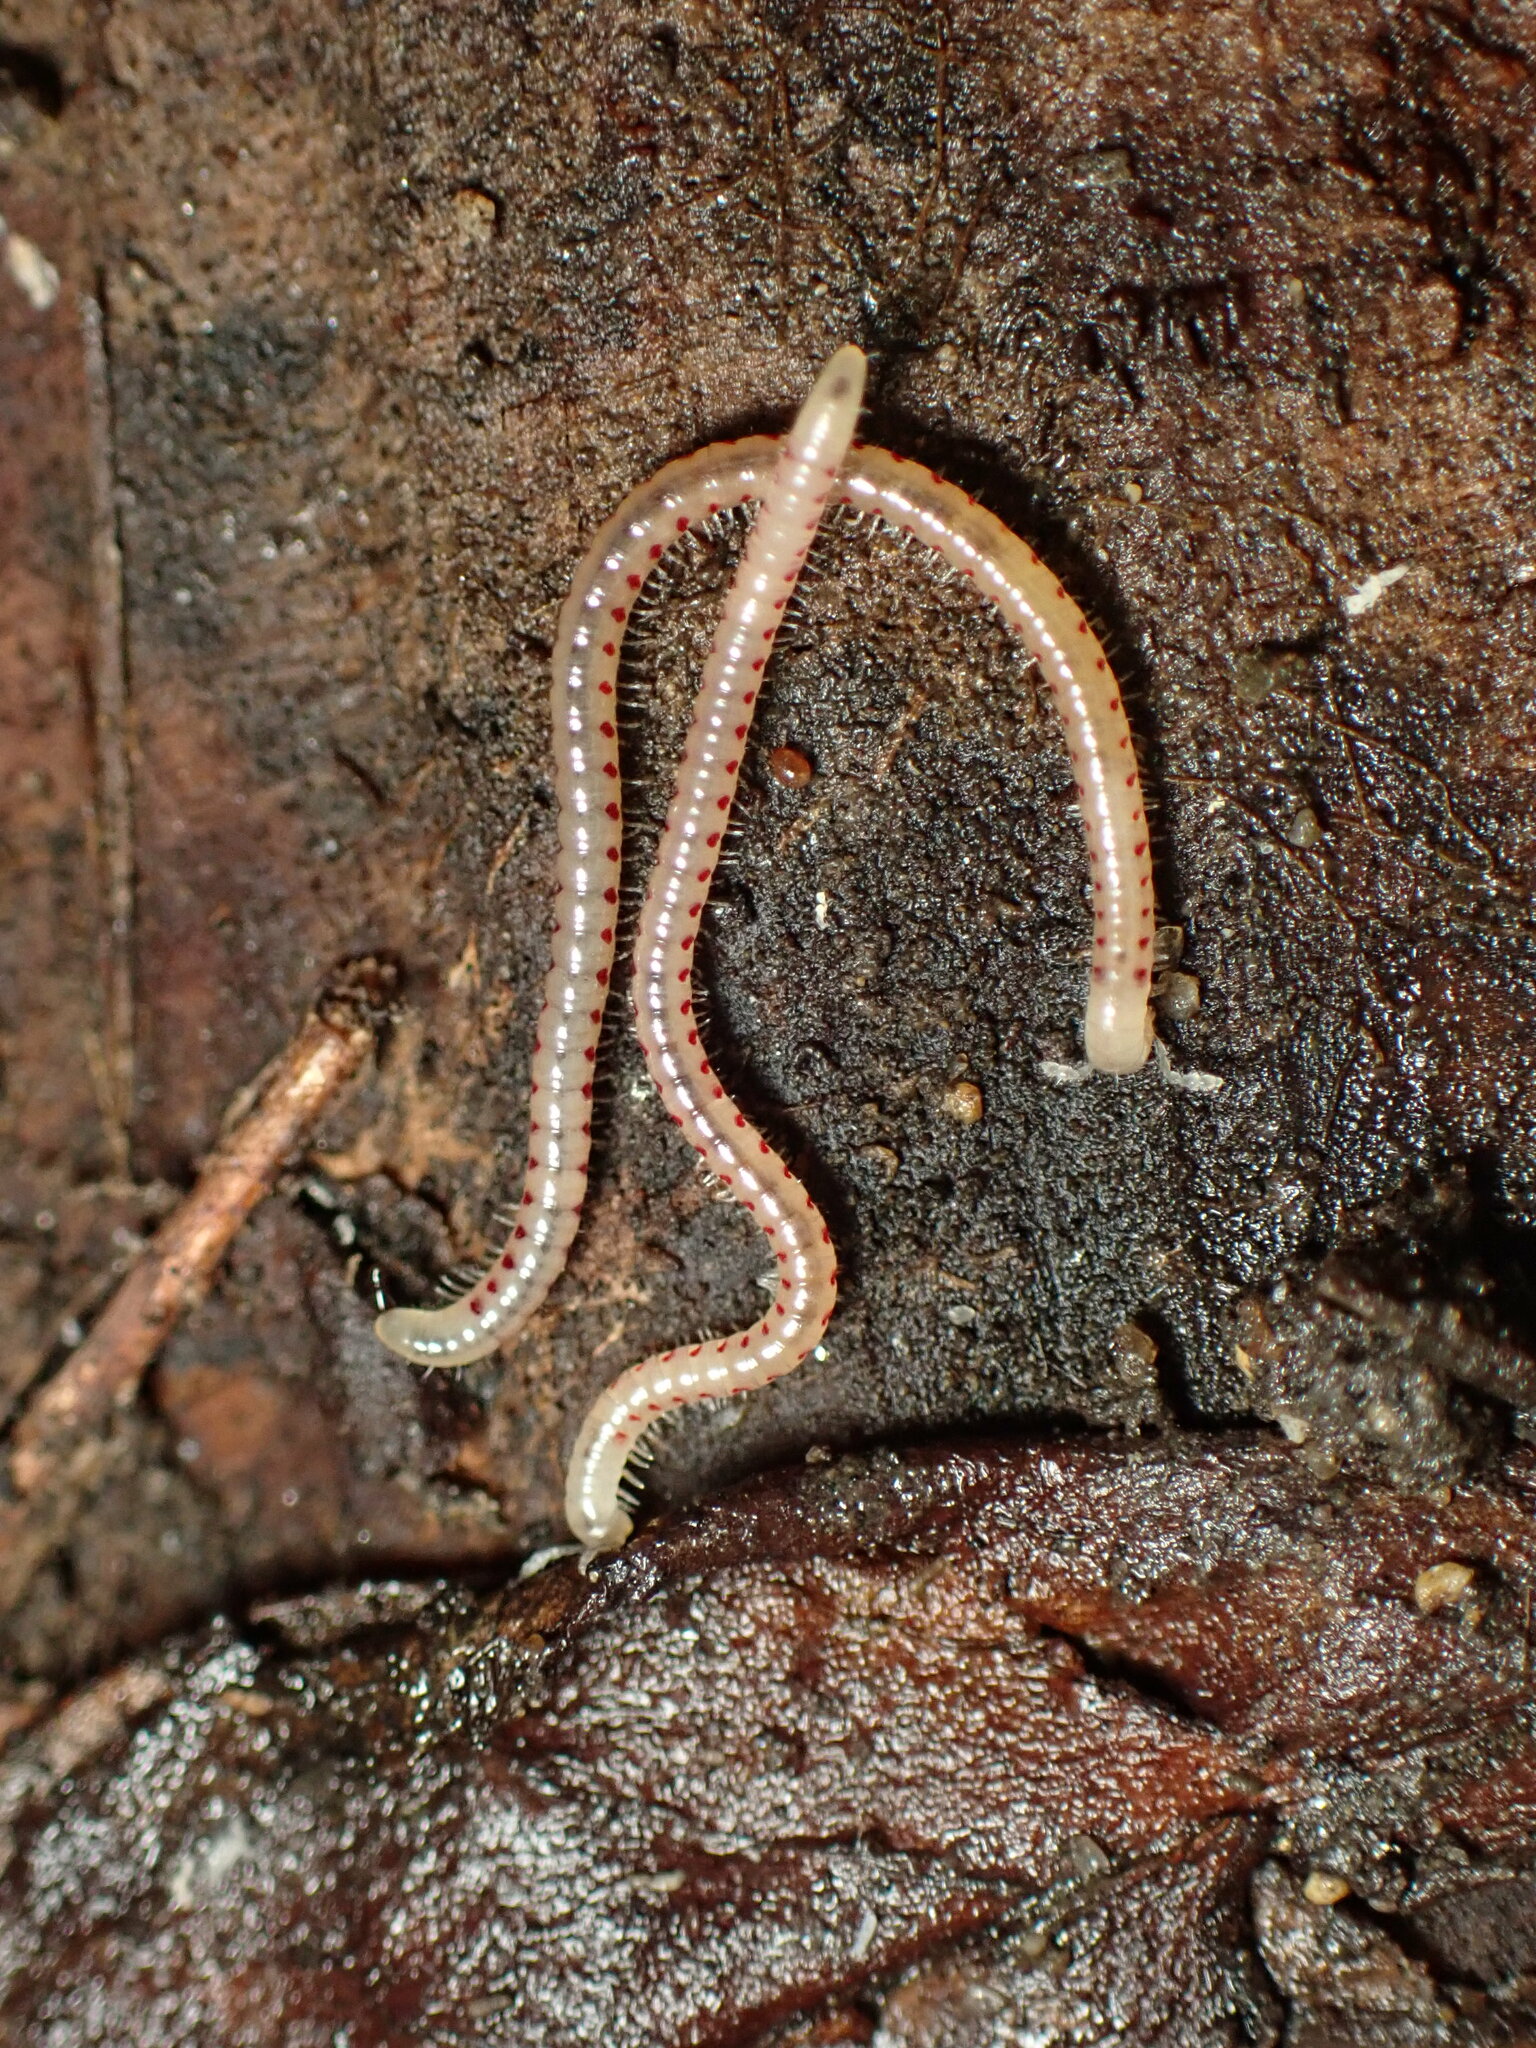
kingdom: Animalia
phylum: Arthropoda
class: Diplopoda
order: Julida
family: Blaniulidae
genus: Blaniulus
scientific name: Blaniulus guttulatus
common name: Spotted snake millipede
